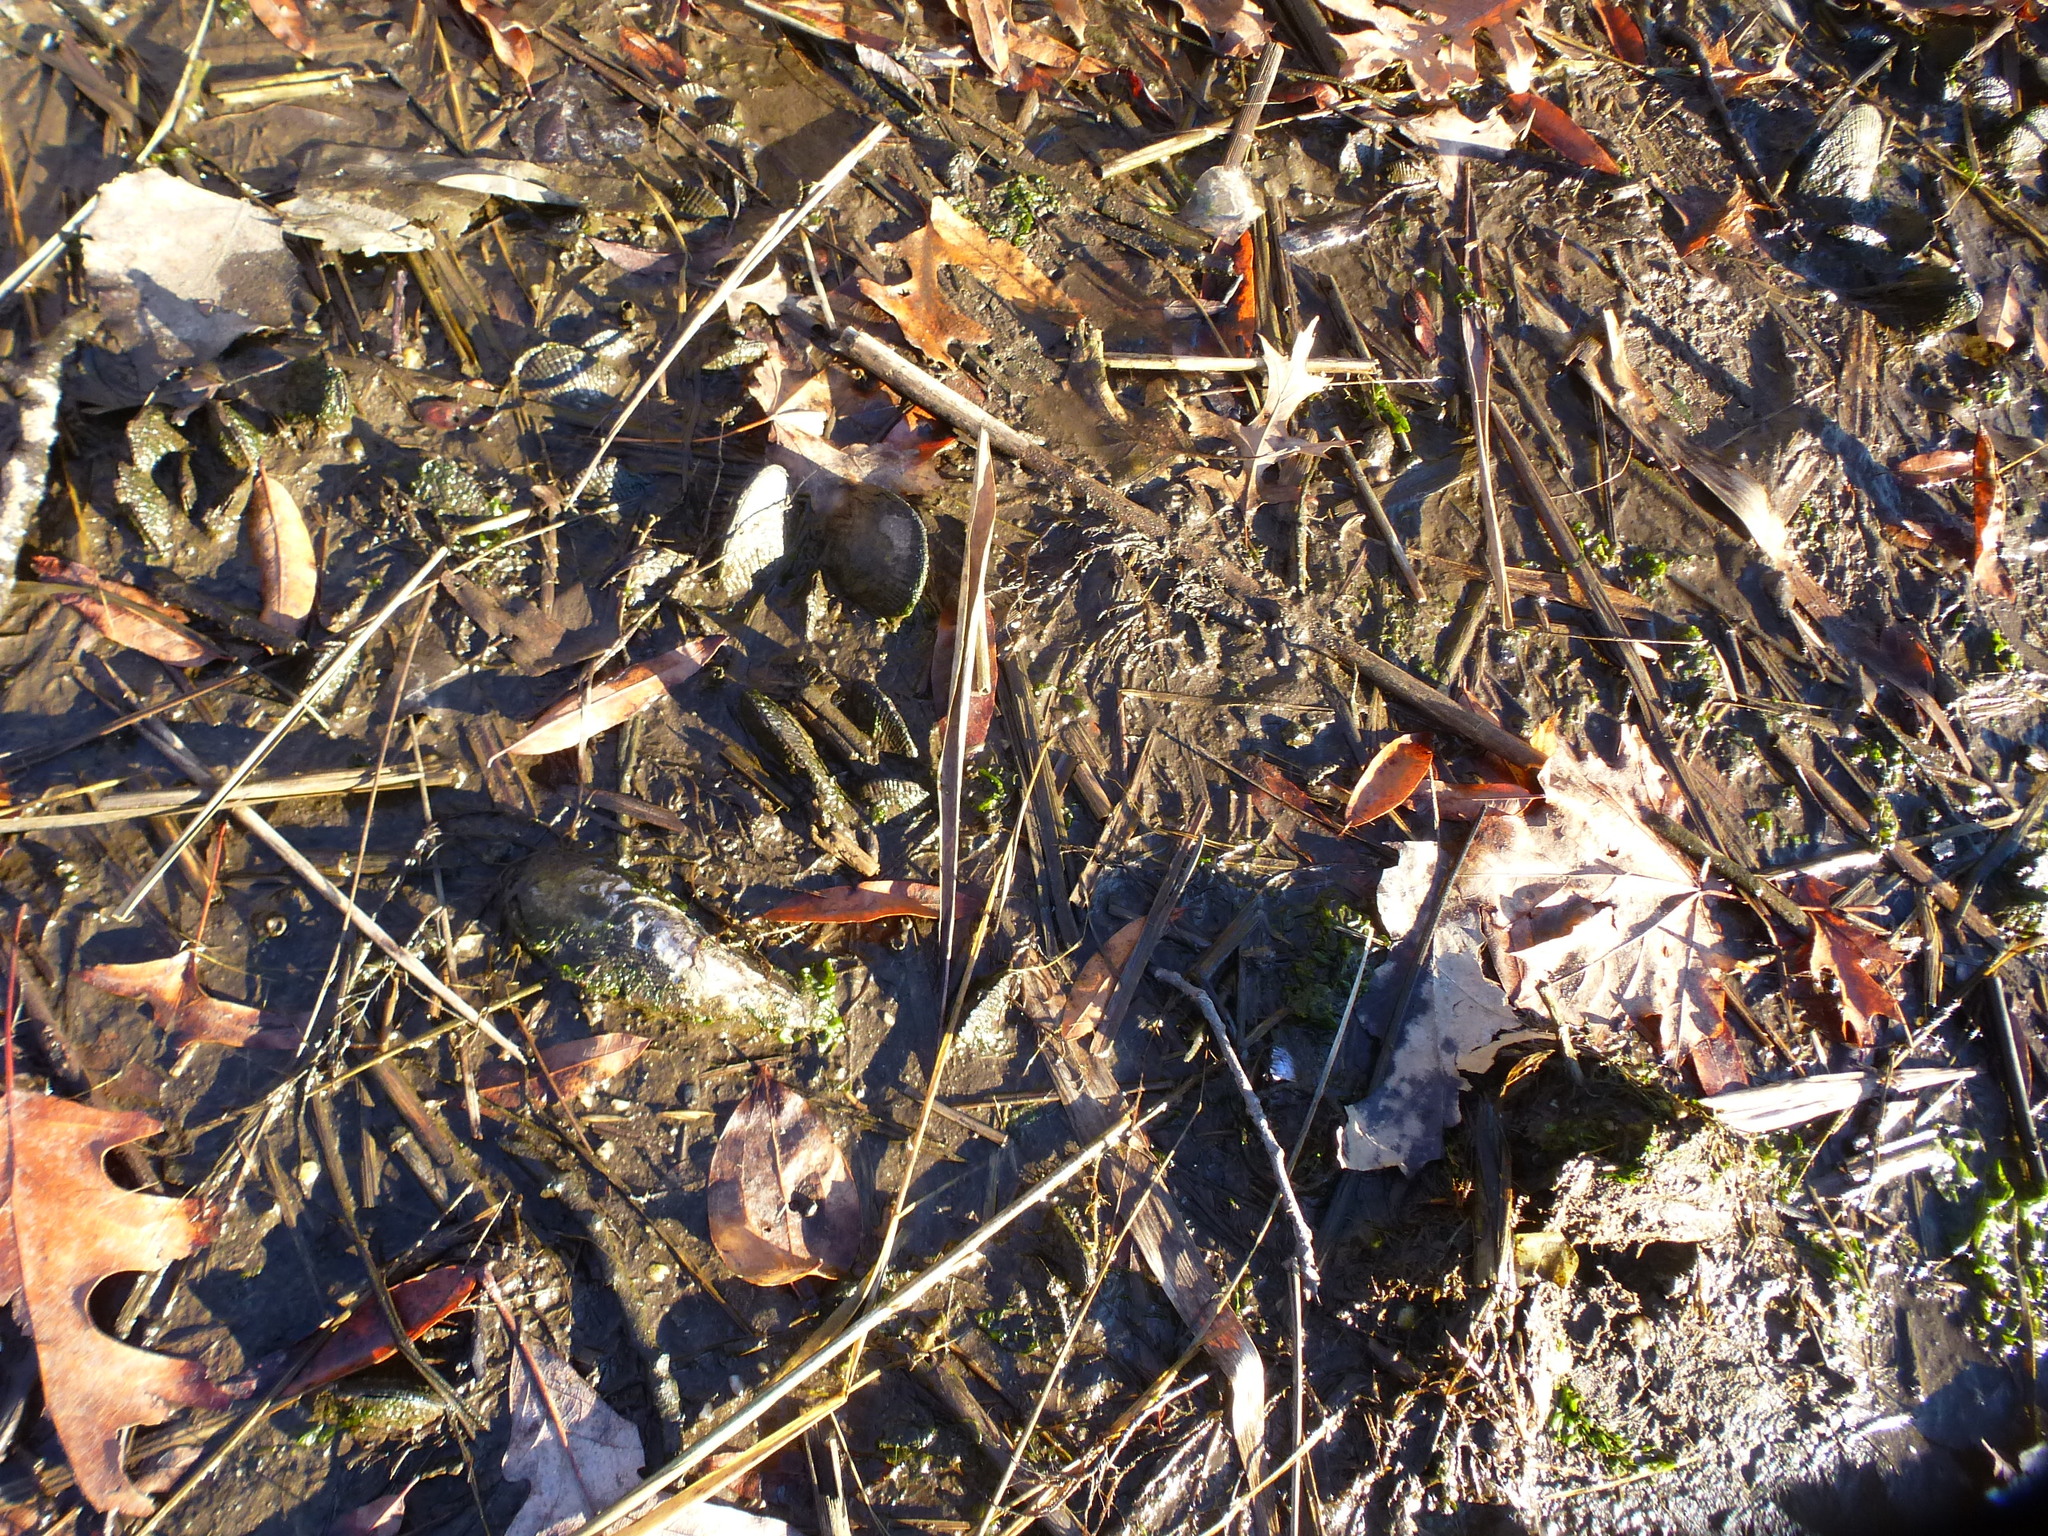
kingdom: Animalia
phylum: Mollusca
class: Bivalvia
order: Mytilida
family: Mytilidae
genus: Geukensia
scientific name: Geukensia demissa
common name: Ribbed mussel
